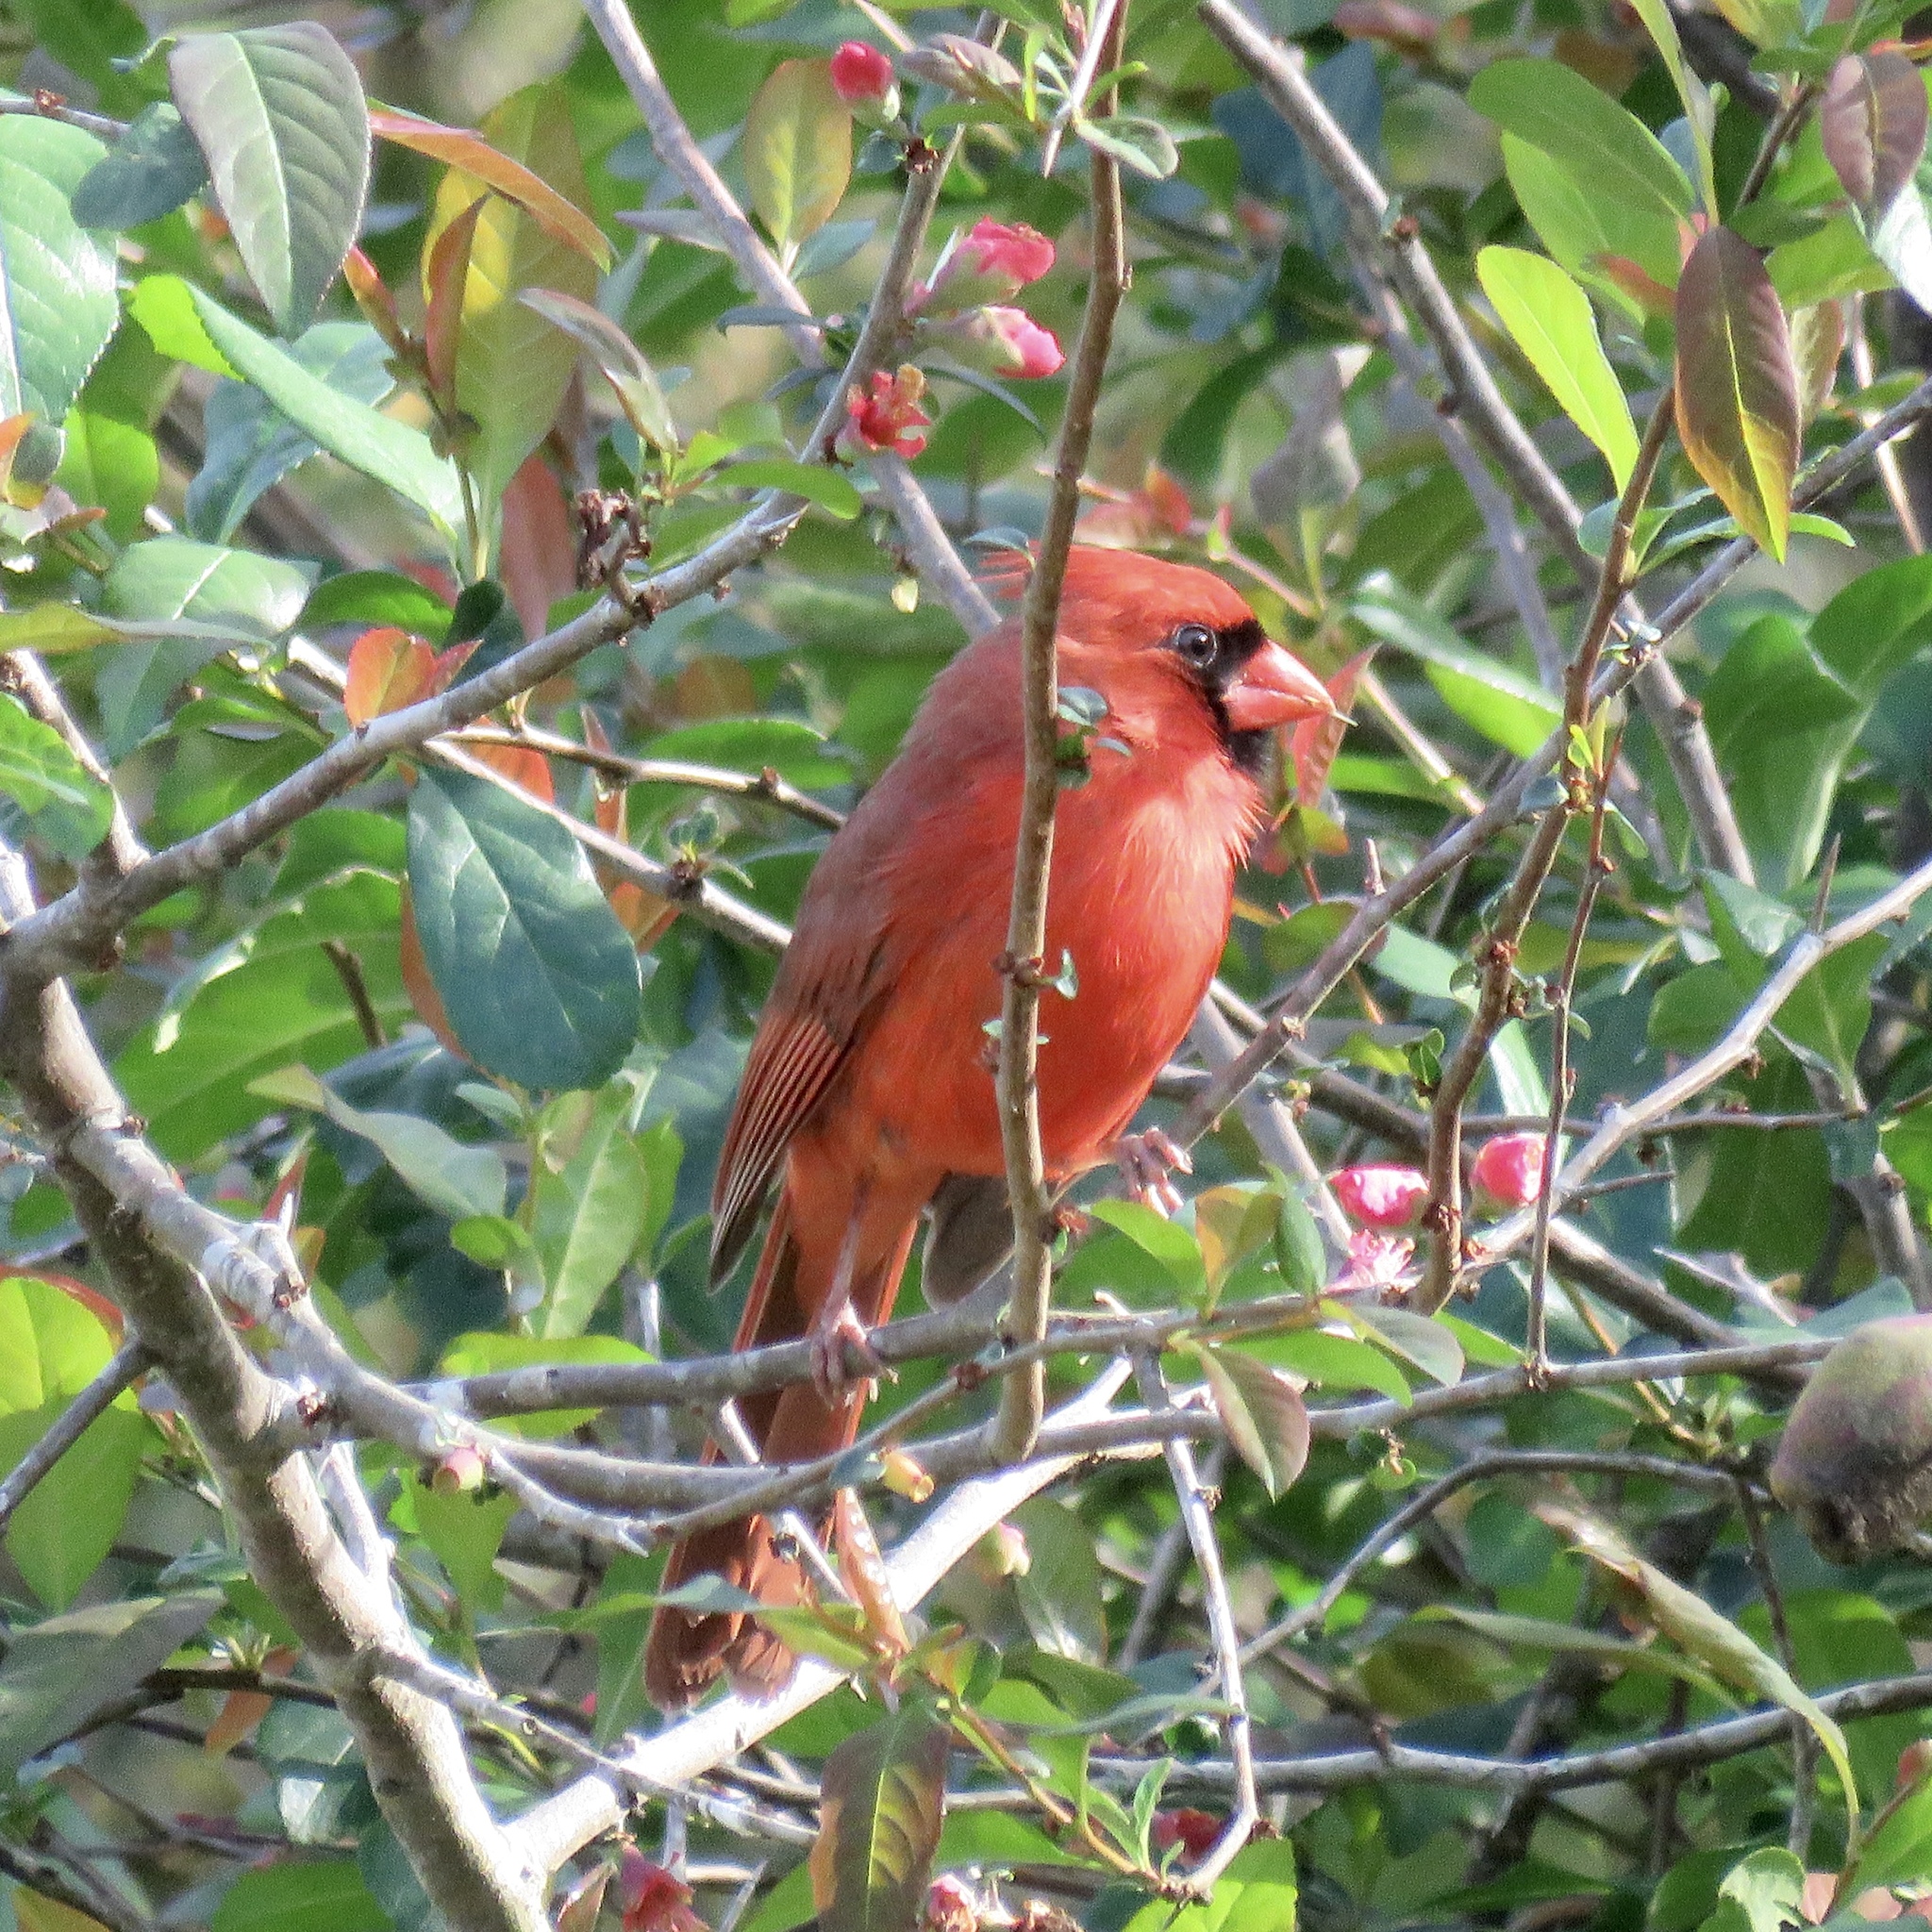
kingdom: Animalia
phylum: Chordata
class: Aves
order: Passeriformes
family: Cardinalidae
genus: Cardinalis
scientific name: Cardinalis cardinalis
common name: Northern cardinal
